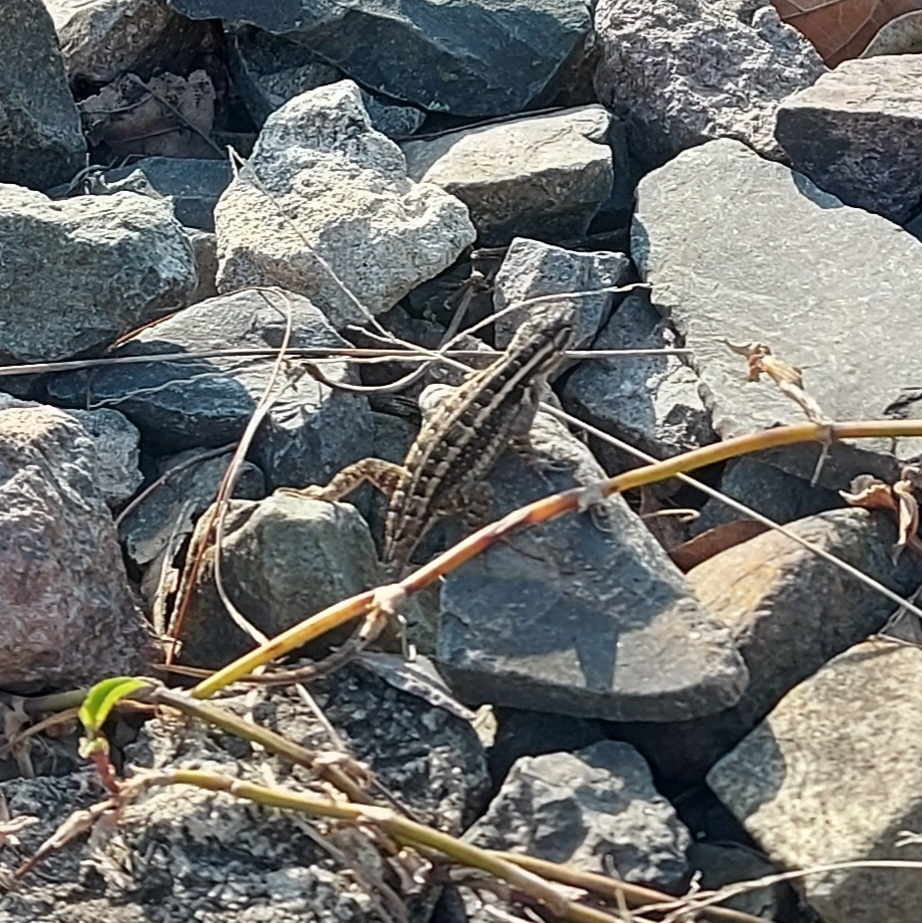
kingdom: Animalia
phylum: Chordata
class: Squamata
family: Phrynosomatidae
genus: Sceloporus
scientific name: Sceloporus variabilis
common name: Rosebelly lizard
